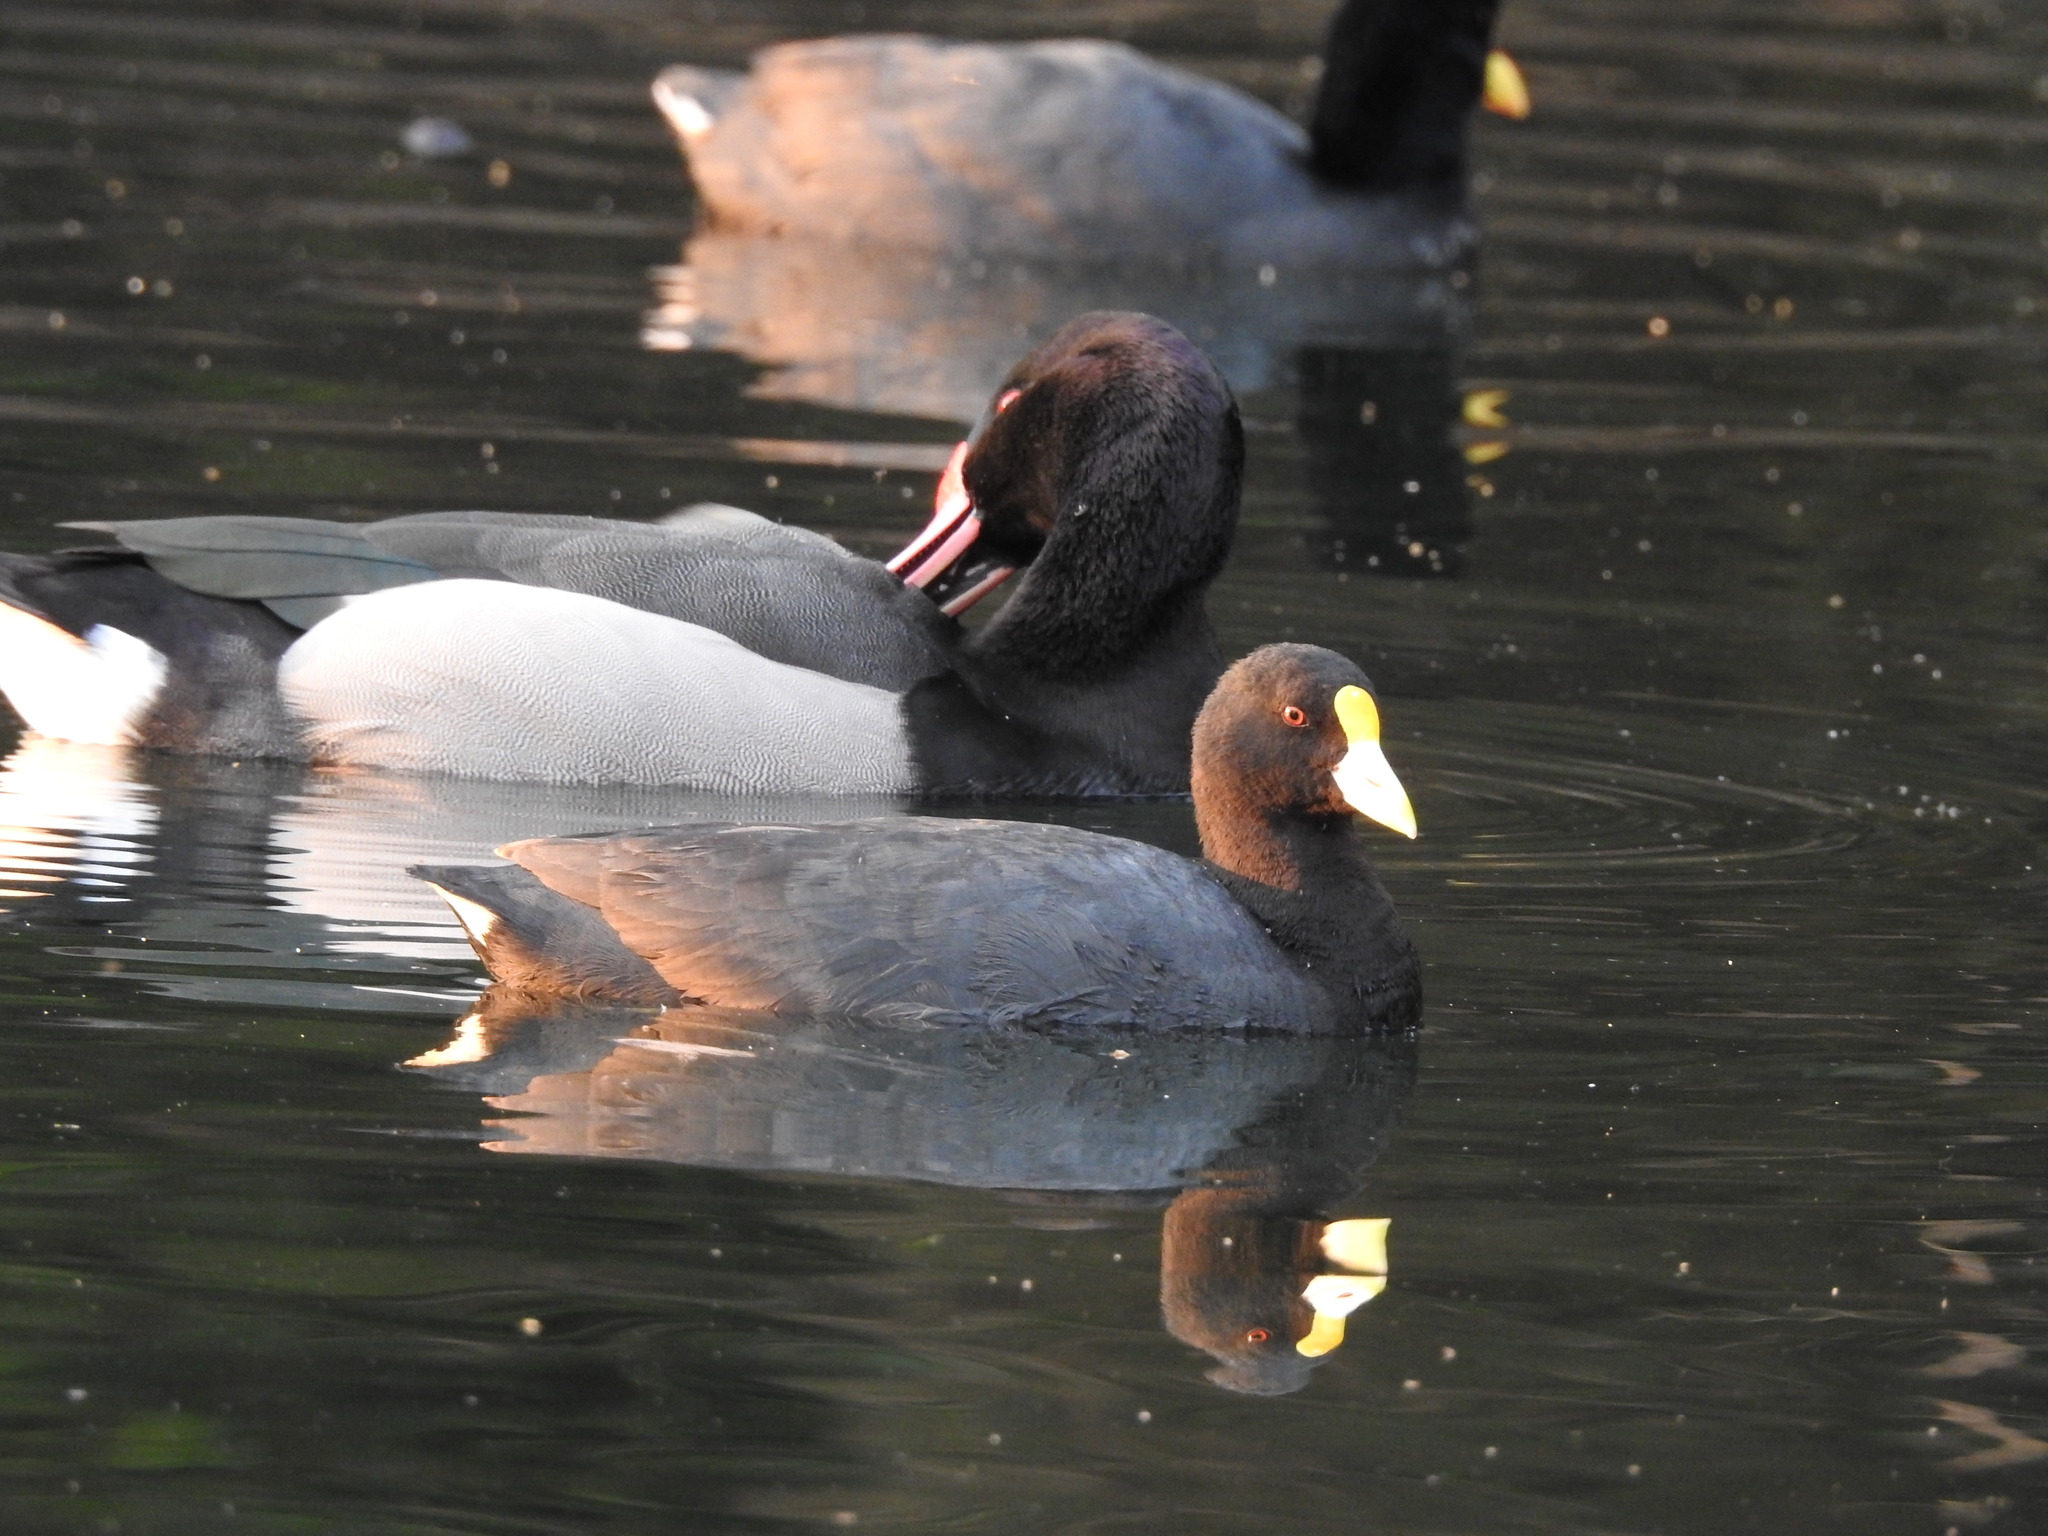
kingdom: Animalia
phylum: Chordata
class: Aves
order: Gruiformes
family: Rallidae
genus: Fulica
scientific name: Fulica leucoptera
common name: White-winged coot
